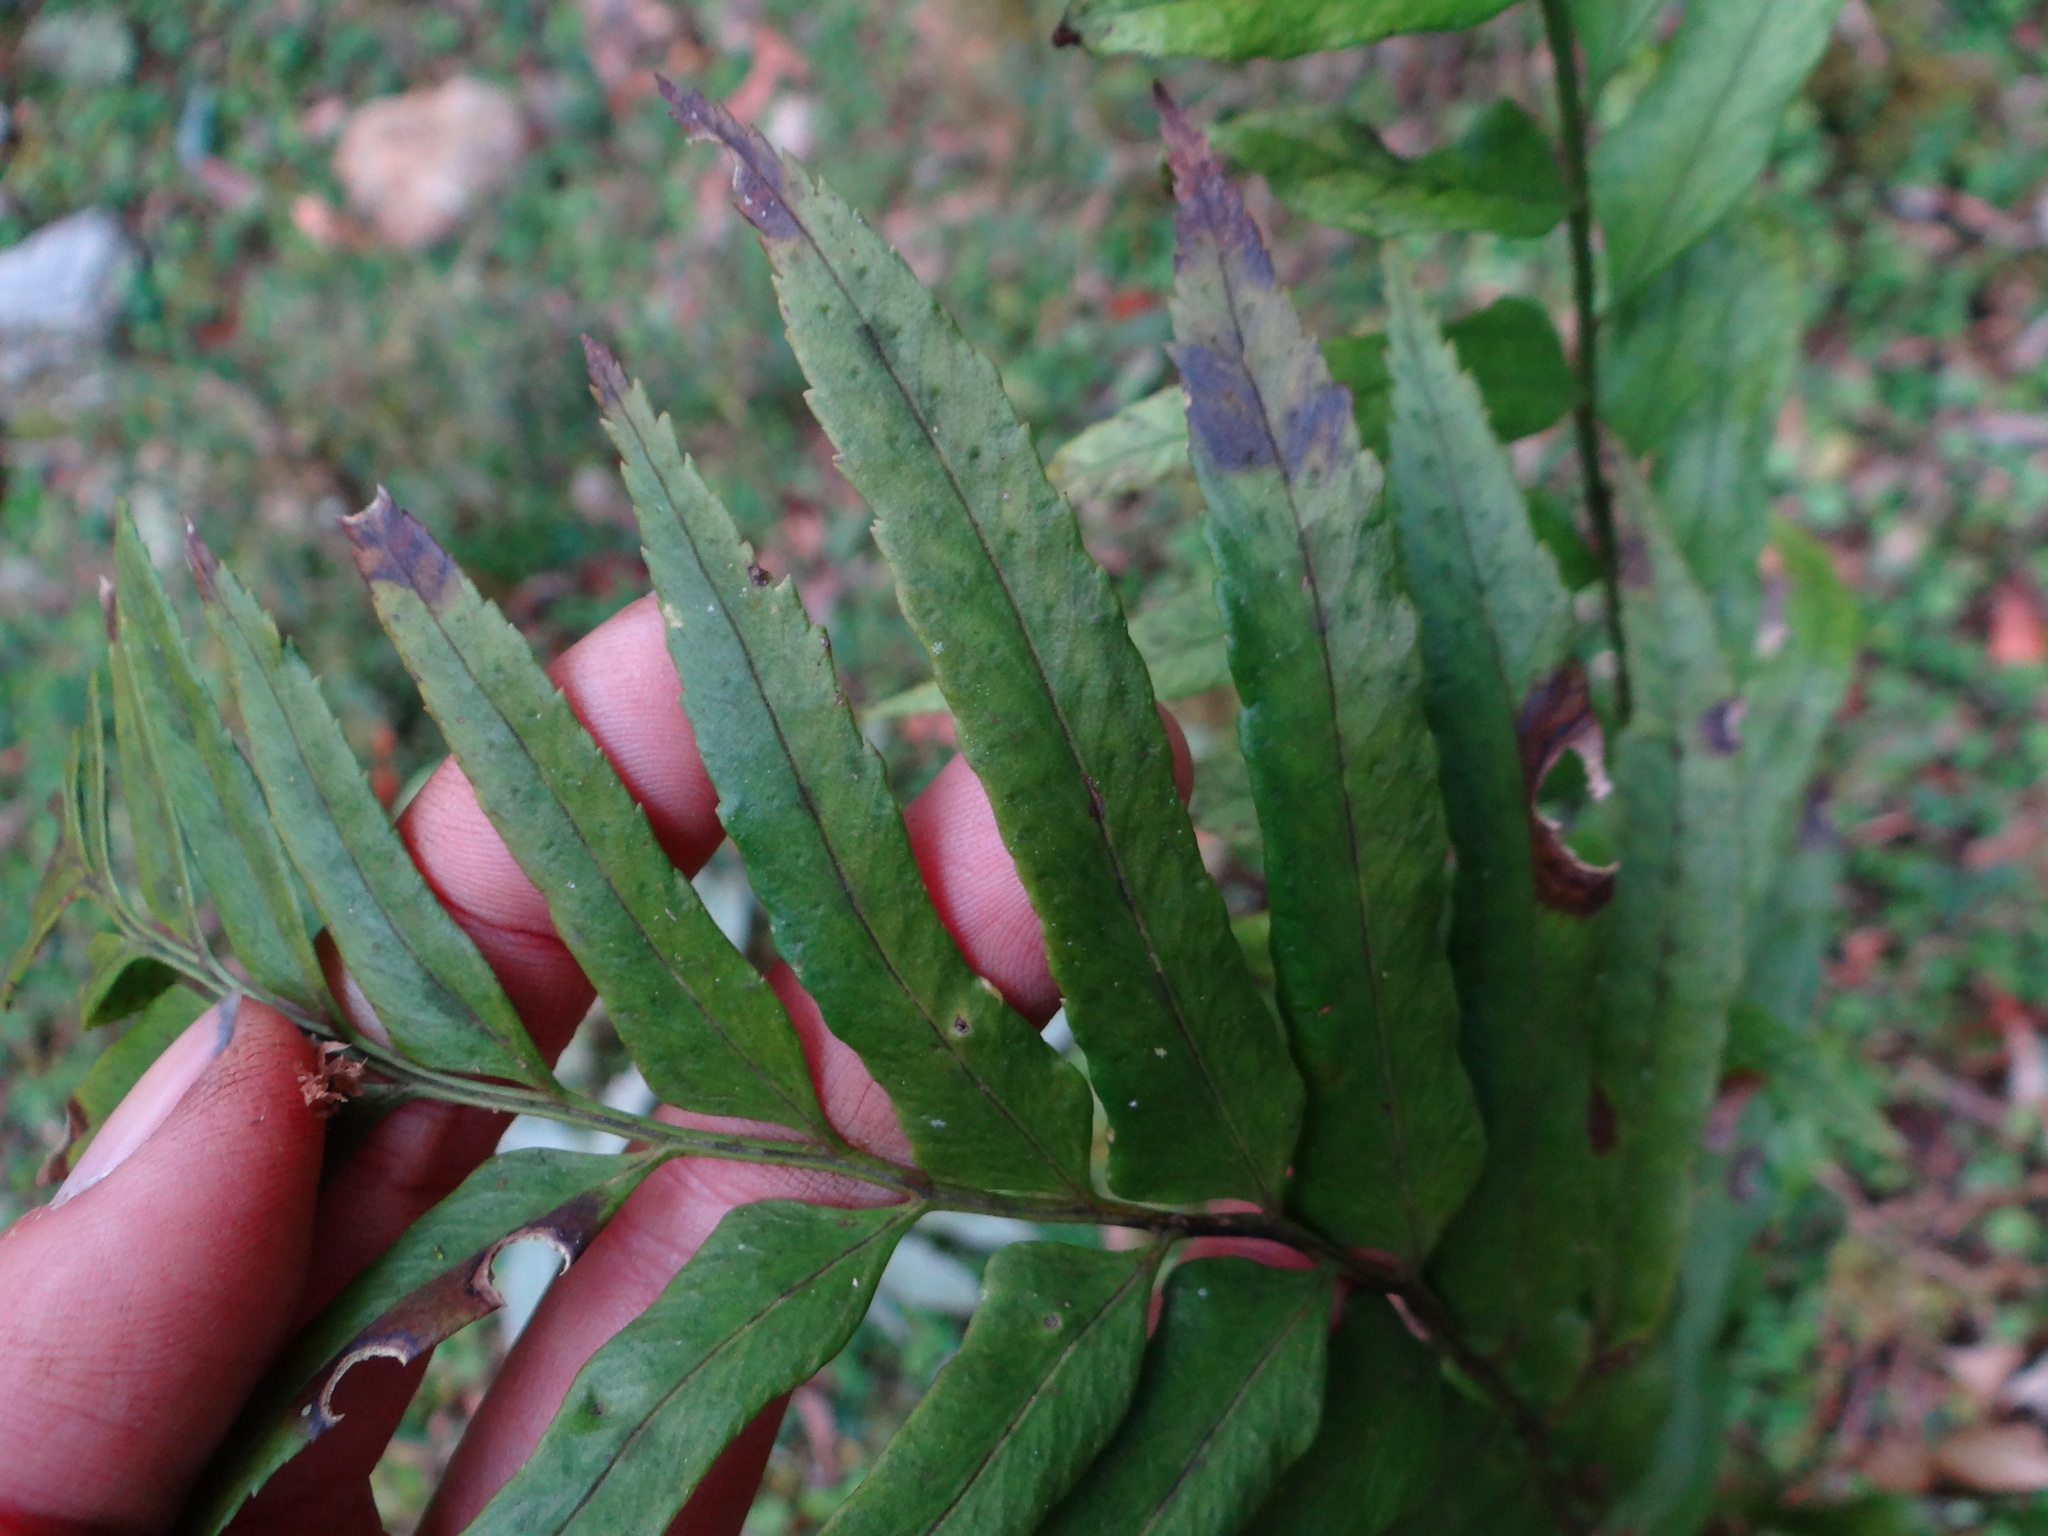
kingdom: Plantae
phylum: Tracheophyta
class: Polypodiopsida
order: Polypodiales
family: Dryopteridaceae
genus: Polystichum
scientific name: Polystichum hookerianum
